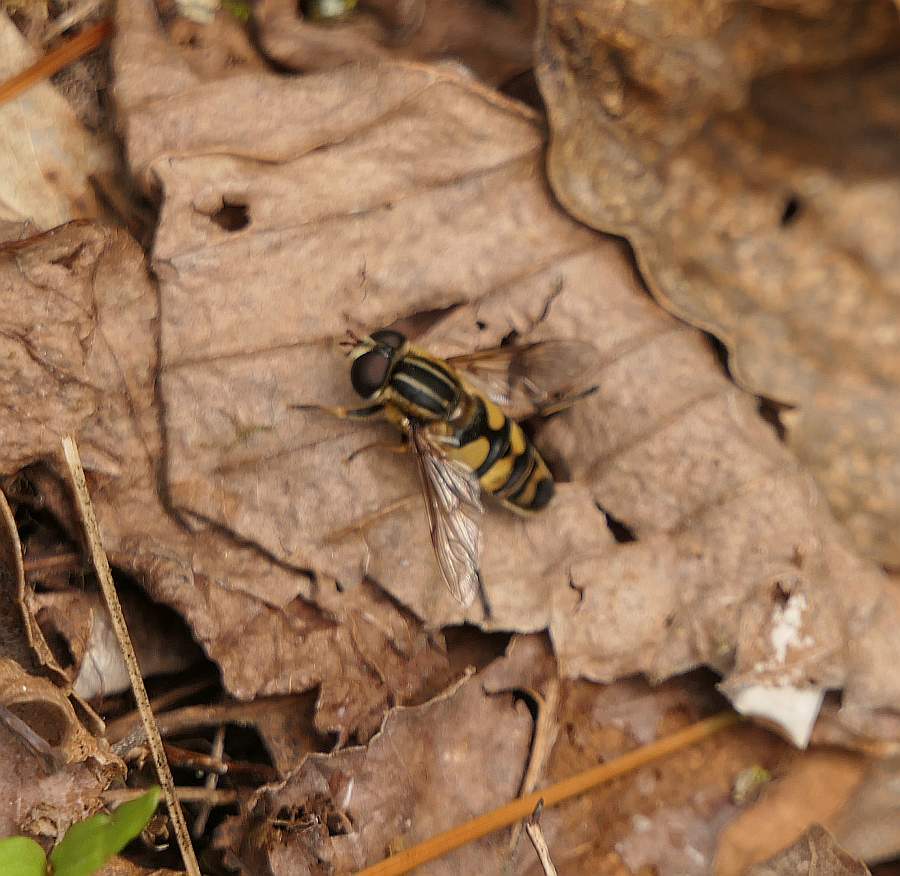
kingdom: Animalia
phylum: Arthropoda
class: Insecta
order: Diptera
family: Syrphidae
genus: Helophilus
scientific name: Helophilus fasciatus
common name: Narrow-headed marsh fly
